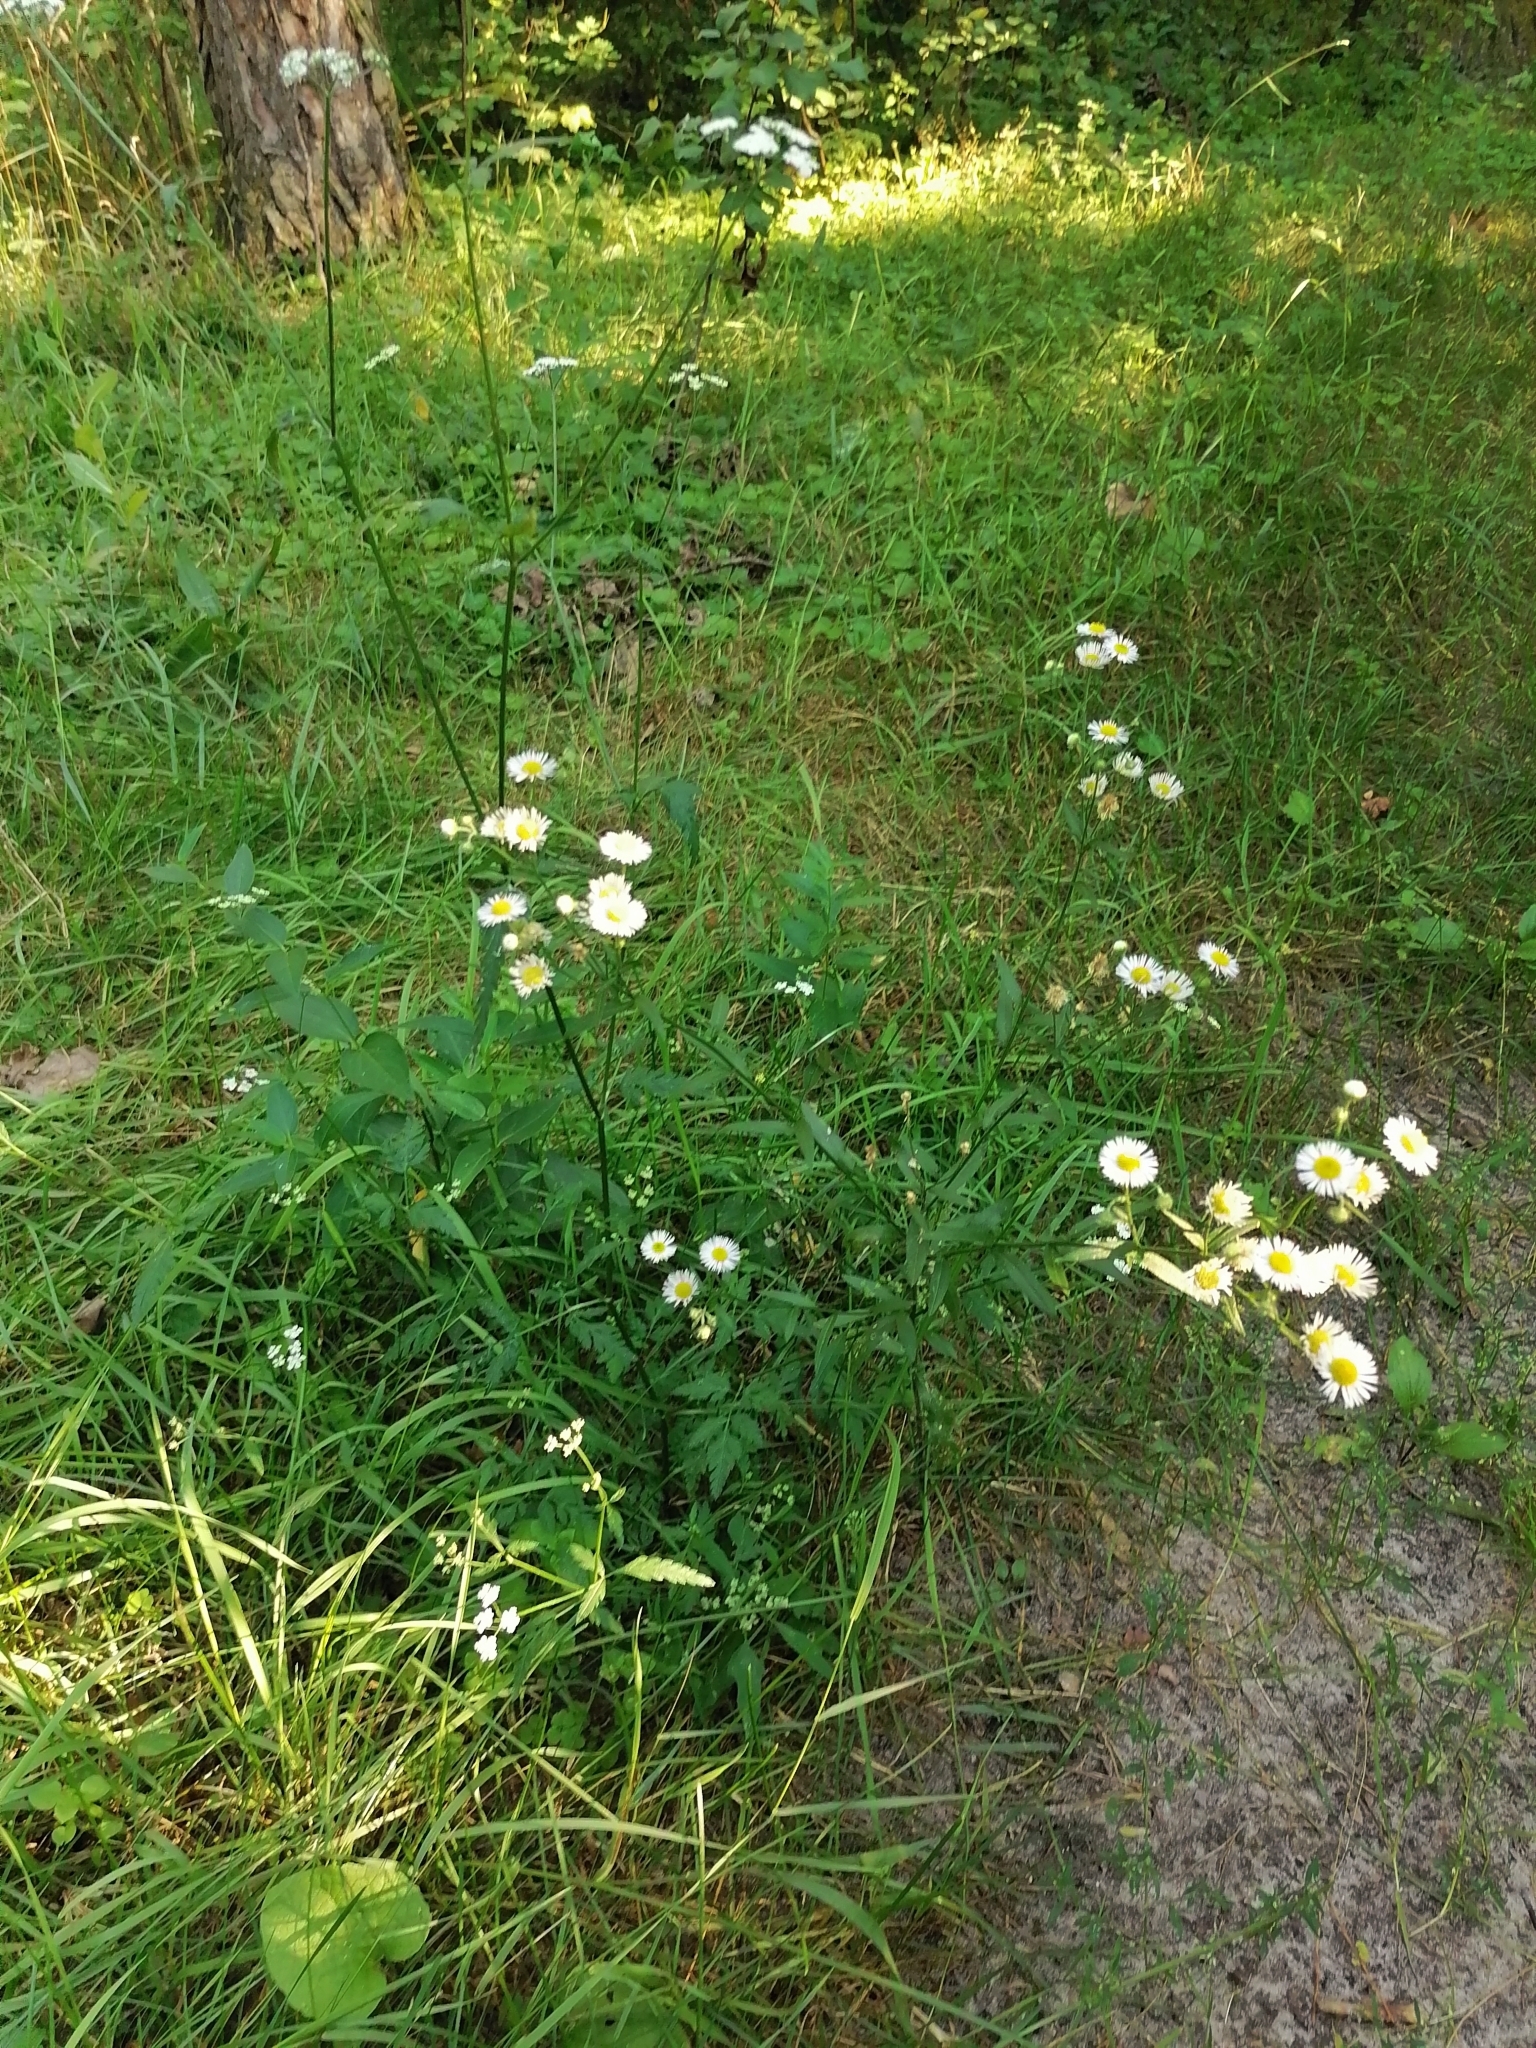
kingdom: Plantae
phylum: Tracheophyta
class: Magnoliopsida
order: Asterales
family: Asteraceae
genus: Erigeron
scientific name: Erigeron strigosus
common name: Common eastern fleabane
